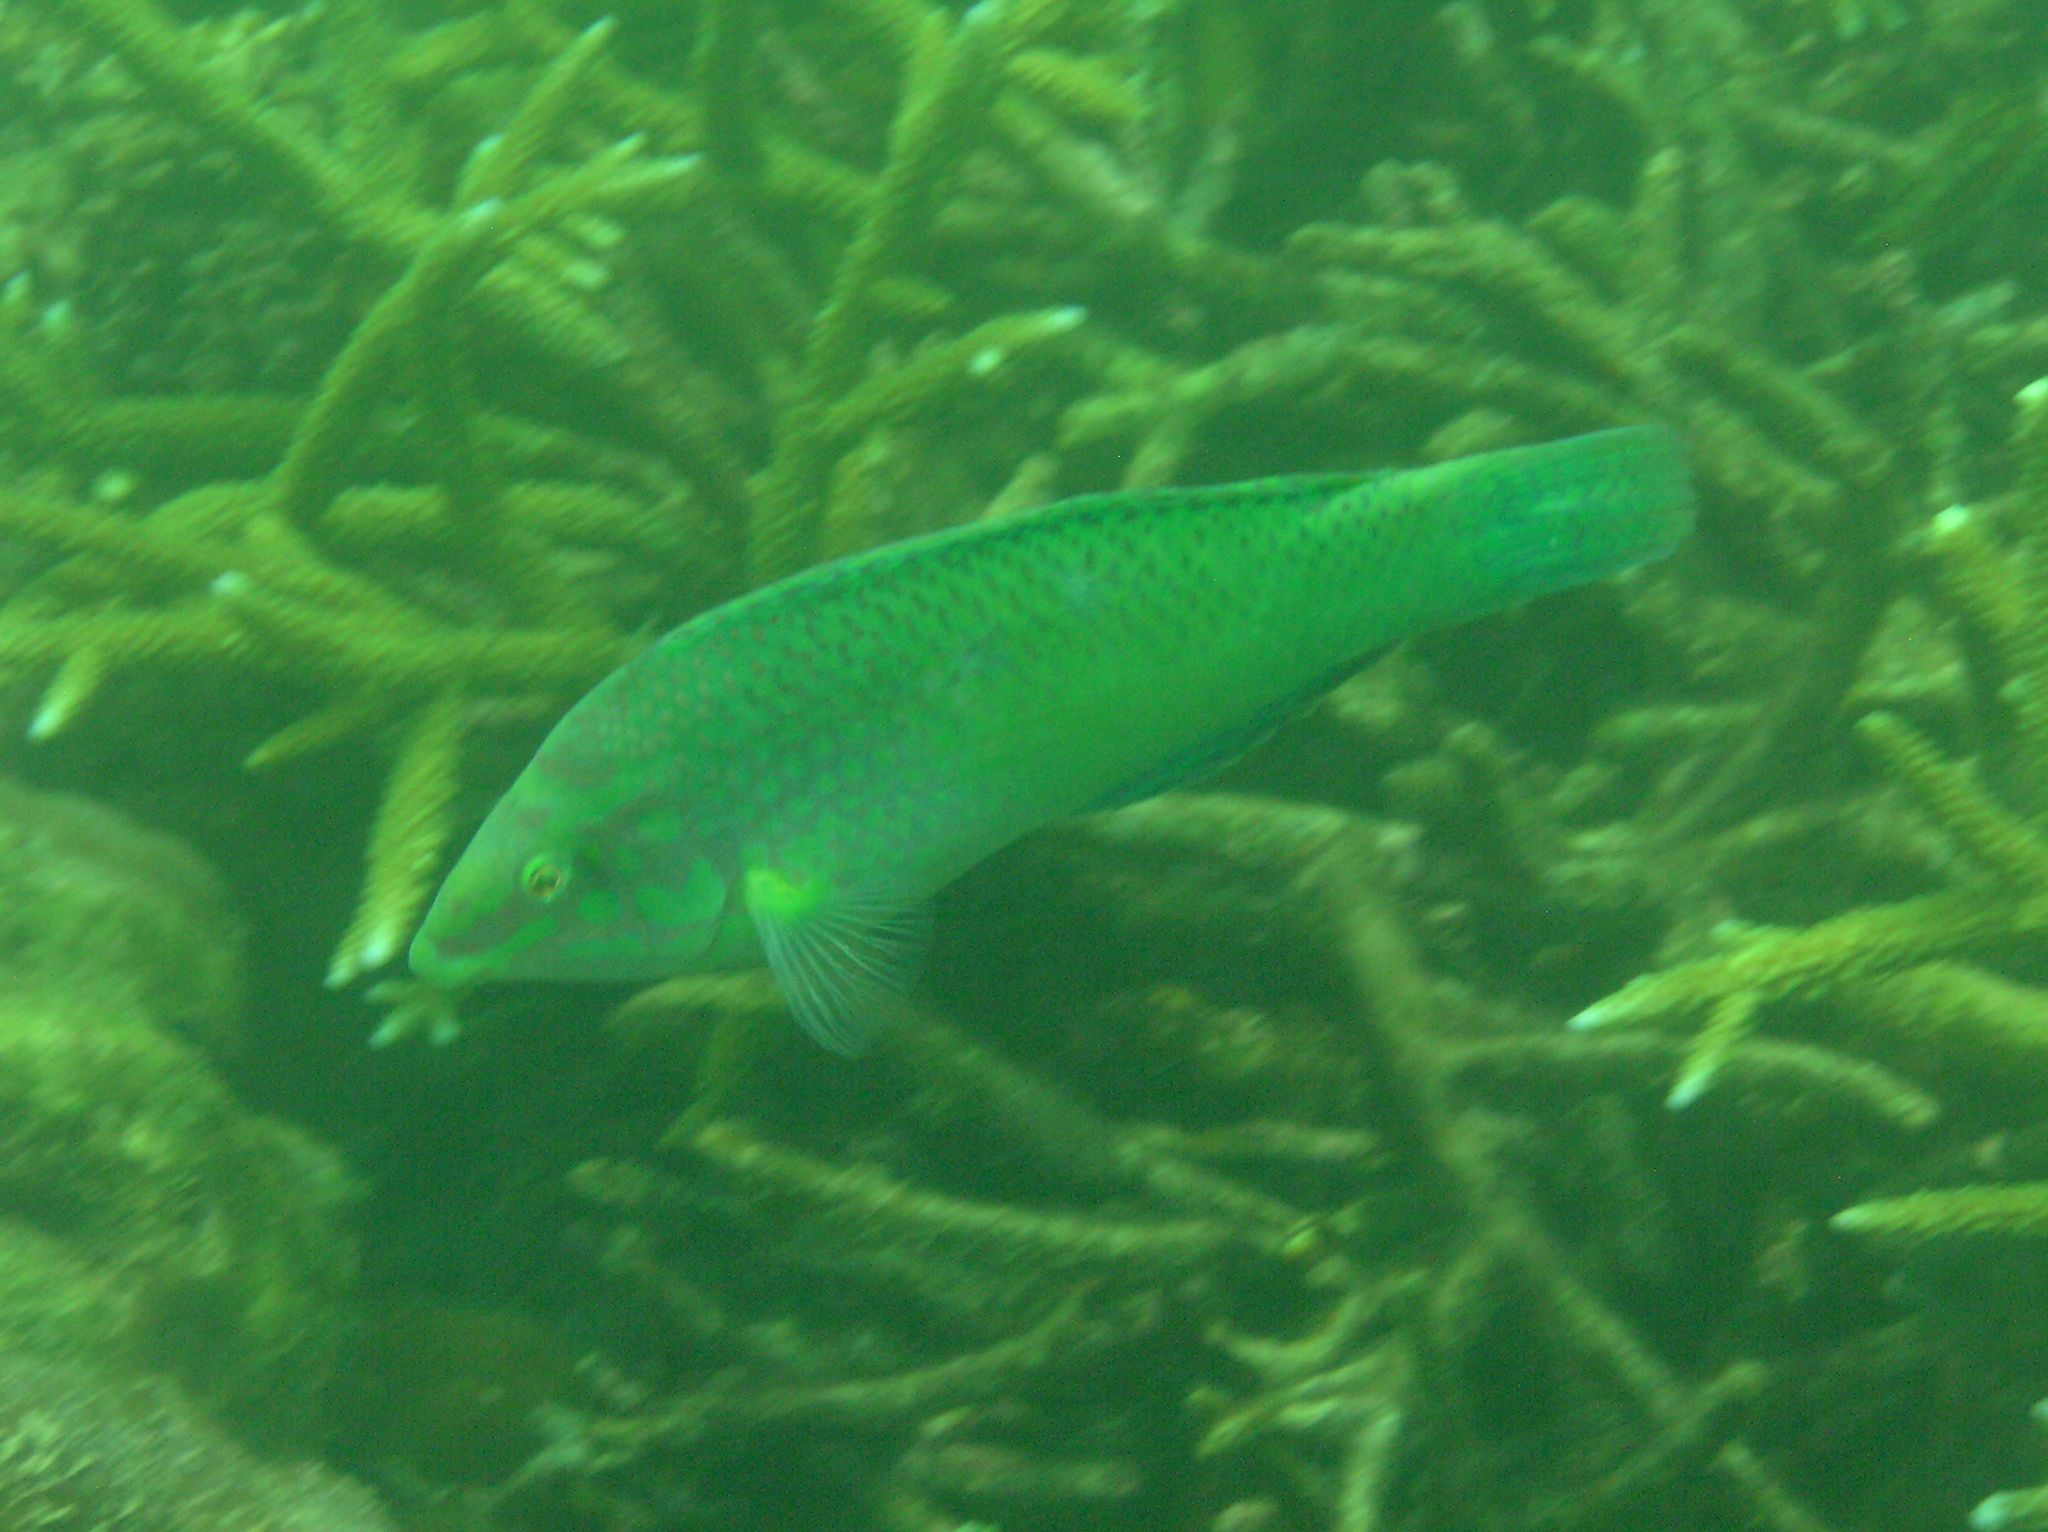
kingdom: Animalia
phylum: Chordata
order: Perciformes
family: Labridae
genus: Halichoeres
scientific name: Halichoeres chloropterus
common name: Pastel-green wrasse
